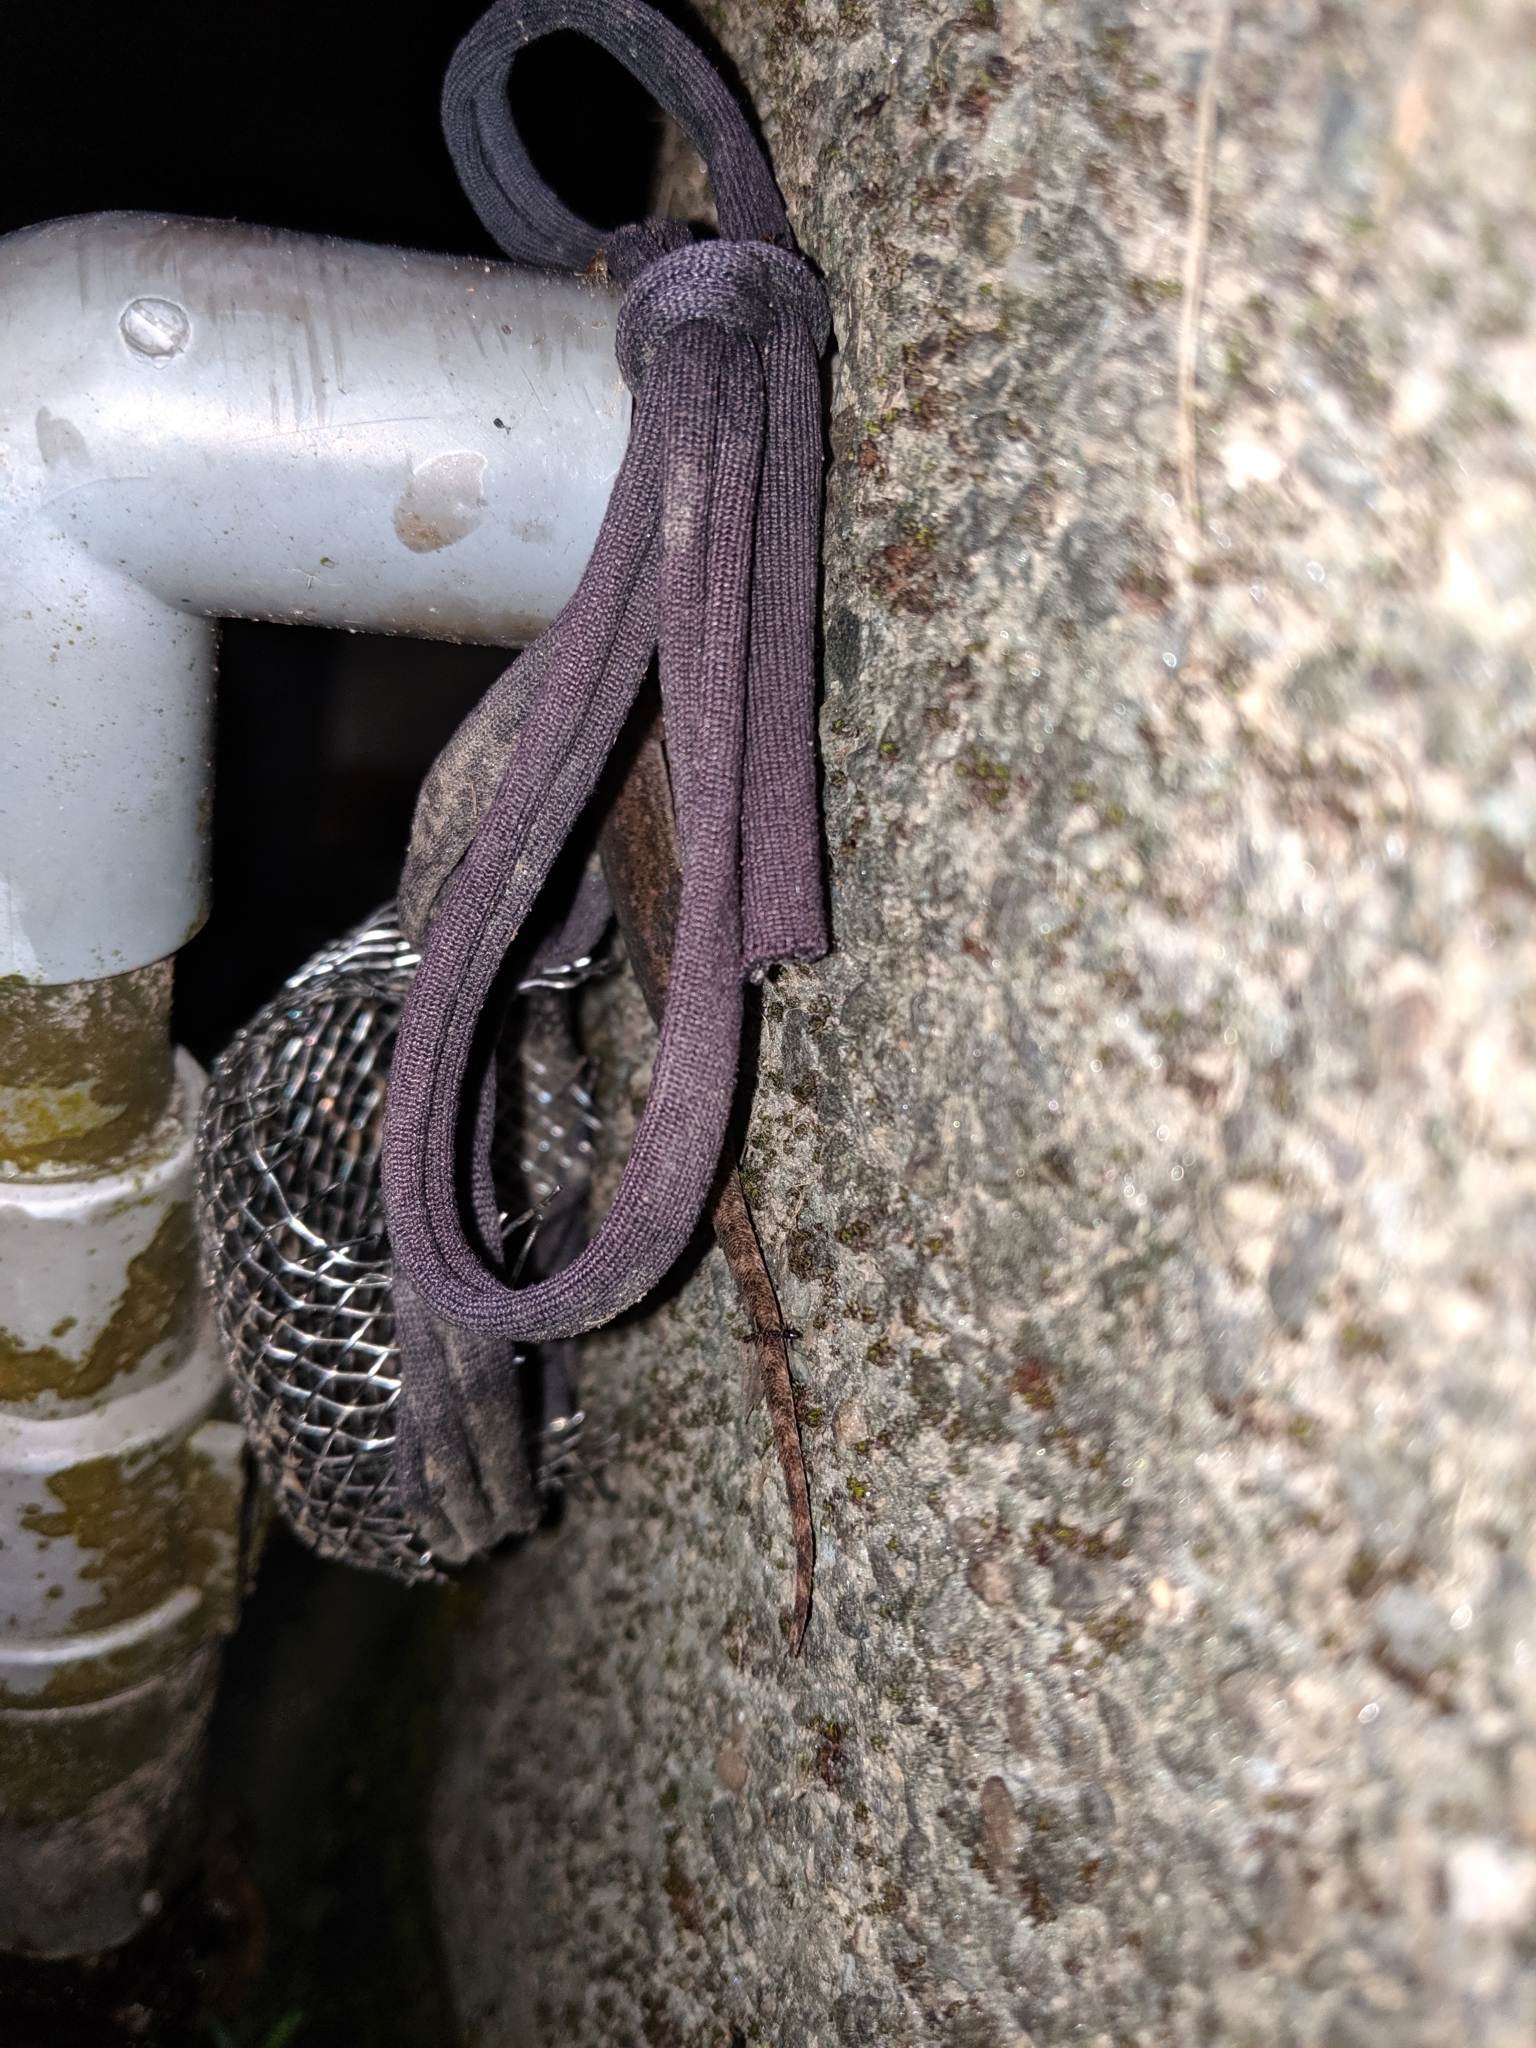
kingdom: Animalia
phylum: Chordata
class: Squamata
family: Gekkonidae
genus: Hemidactylus
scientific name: Hemidactylus frenatus
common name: Common house gecko
